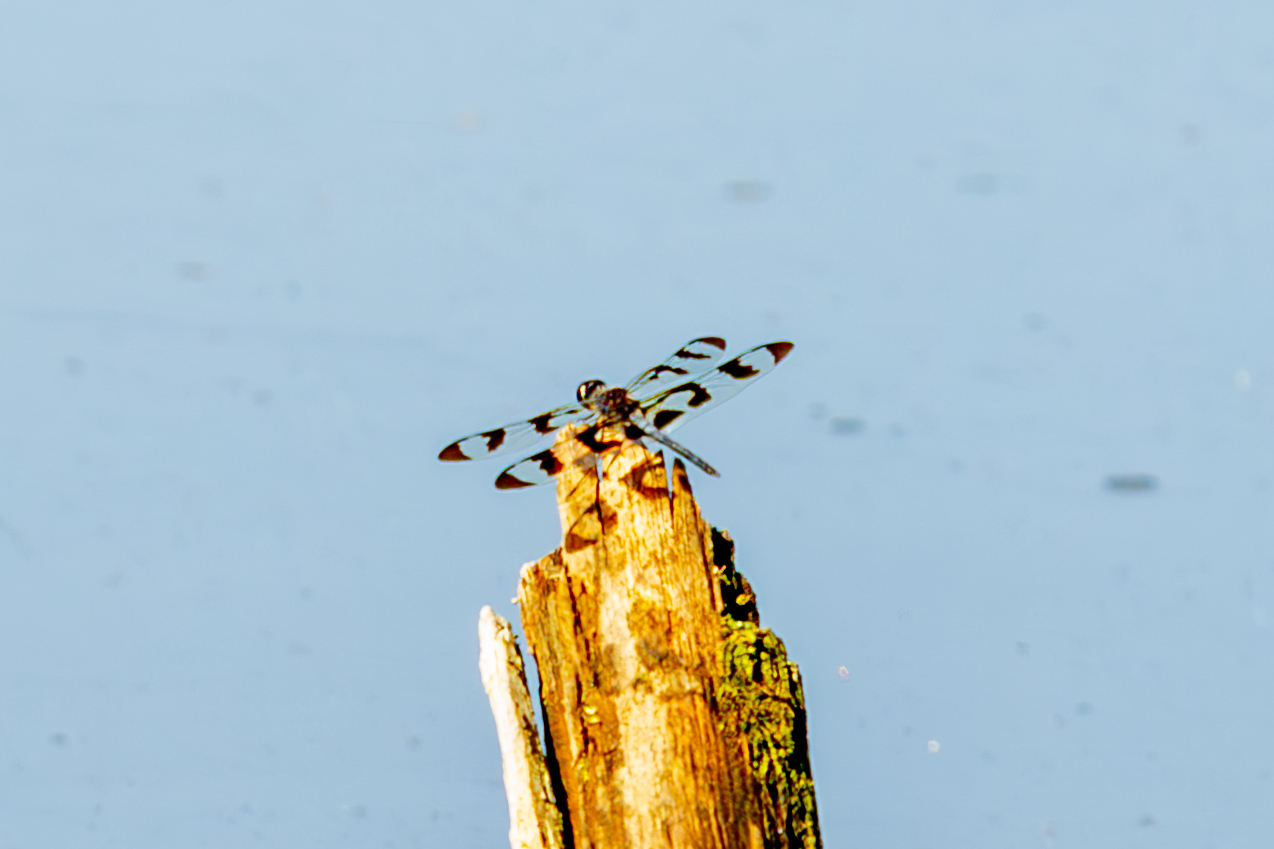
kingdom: Animalia
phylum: Arthropoda
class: Insecta
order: Odonata
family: Libellulidae
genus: Celithemis
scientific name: Celithemis fasciata
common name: Banded pennant
